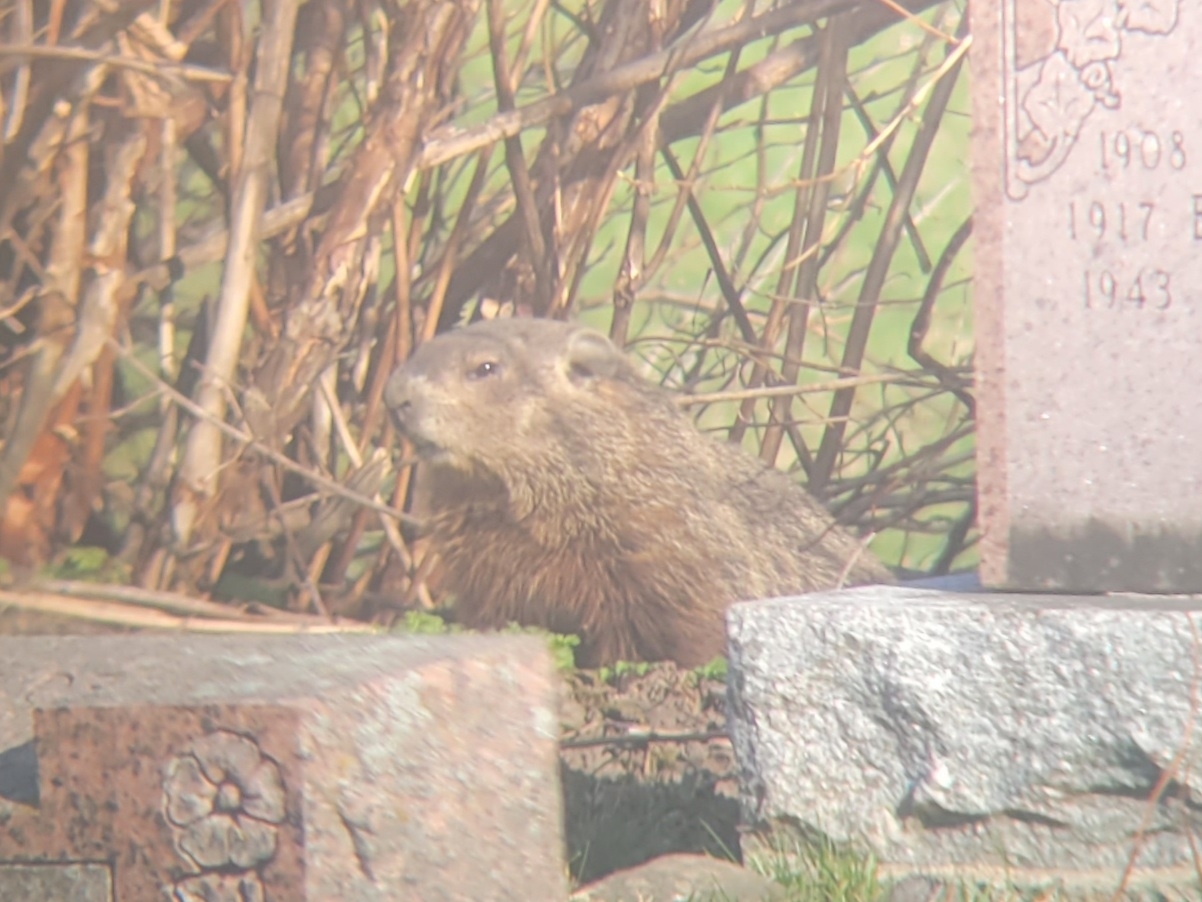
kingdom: Animalia
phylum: Chordata
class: Mammalia
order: Rodentia
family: Sciuridae
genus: Marmota
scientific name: Marmota monax
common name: Groundhog
